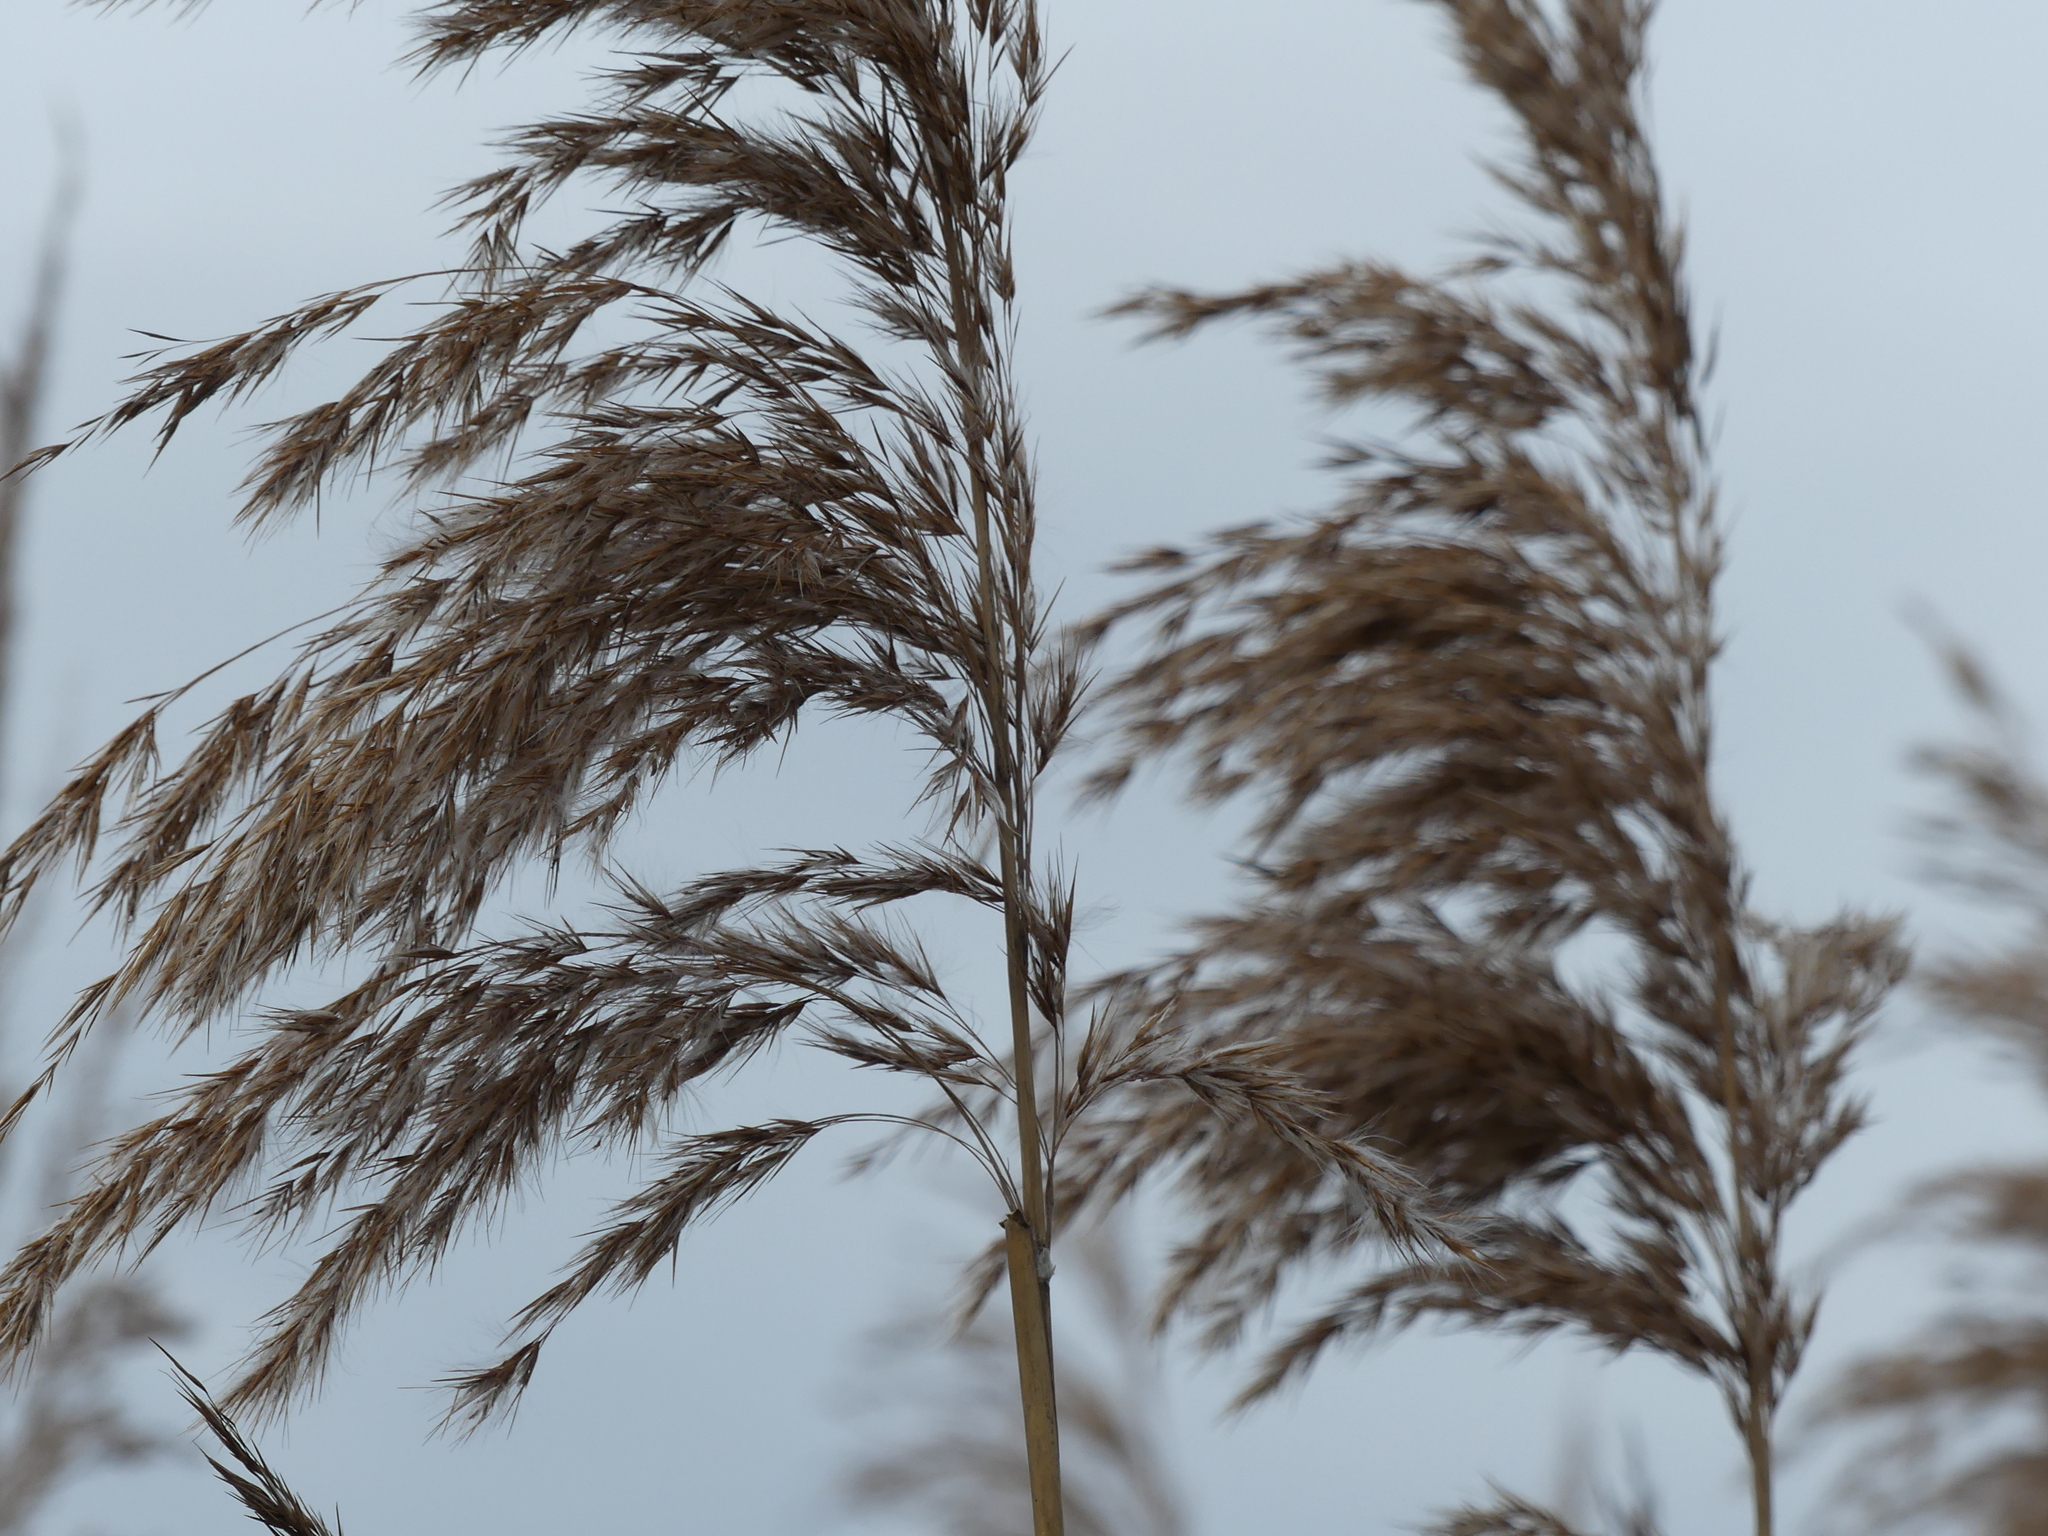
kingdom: Plantae
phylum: Tracheophyta
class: Liliopsida
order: Poales
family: Poaceae
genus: Phragmites
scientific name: Phragmites australis
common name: Common reed
